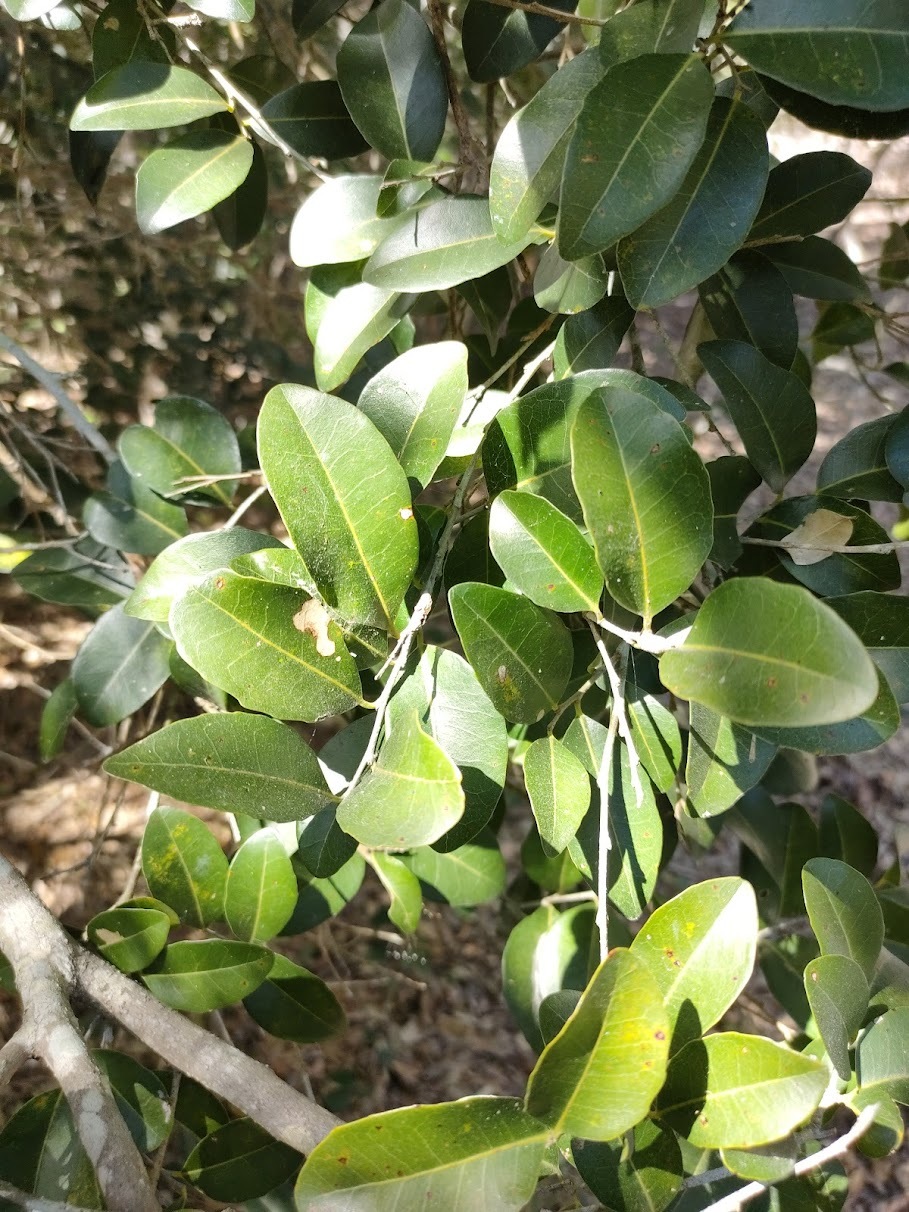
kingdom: Plantae
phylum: Tracheophyta
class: Magnoliopsida
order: Malpighiales
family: Putranjivaceae
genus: Drypetes
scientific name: Drypetes deplanchei
